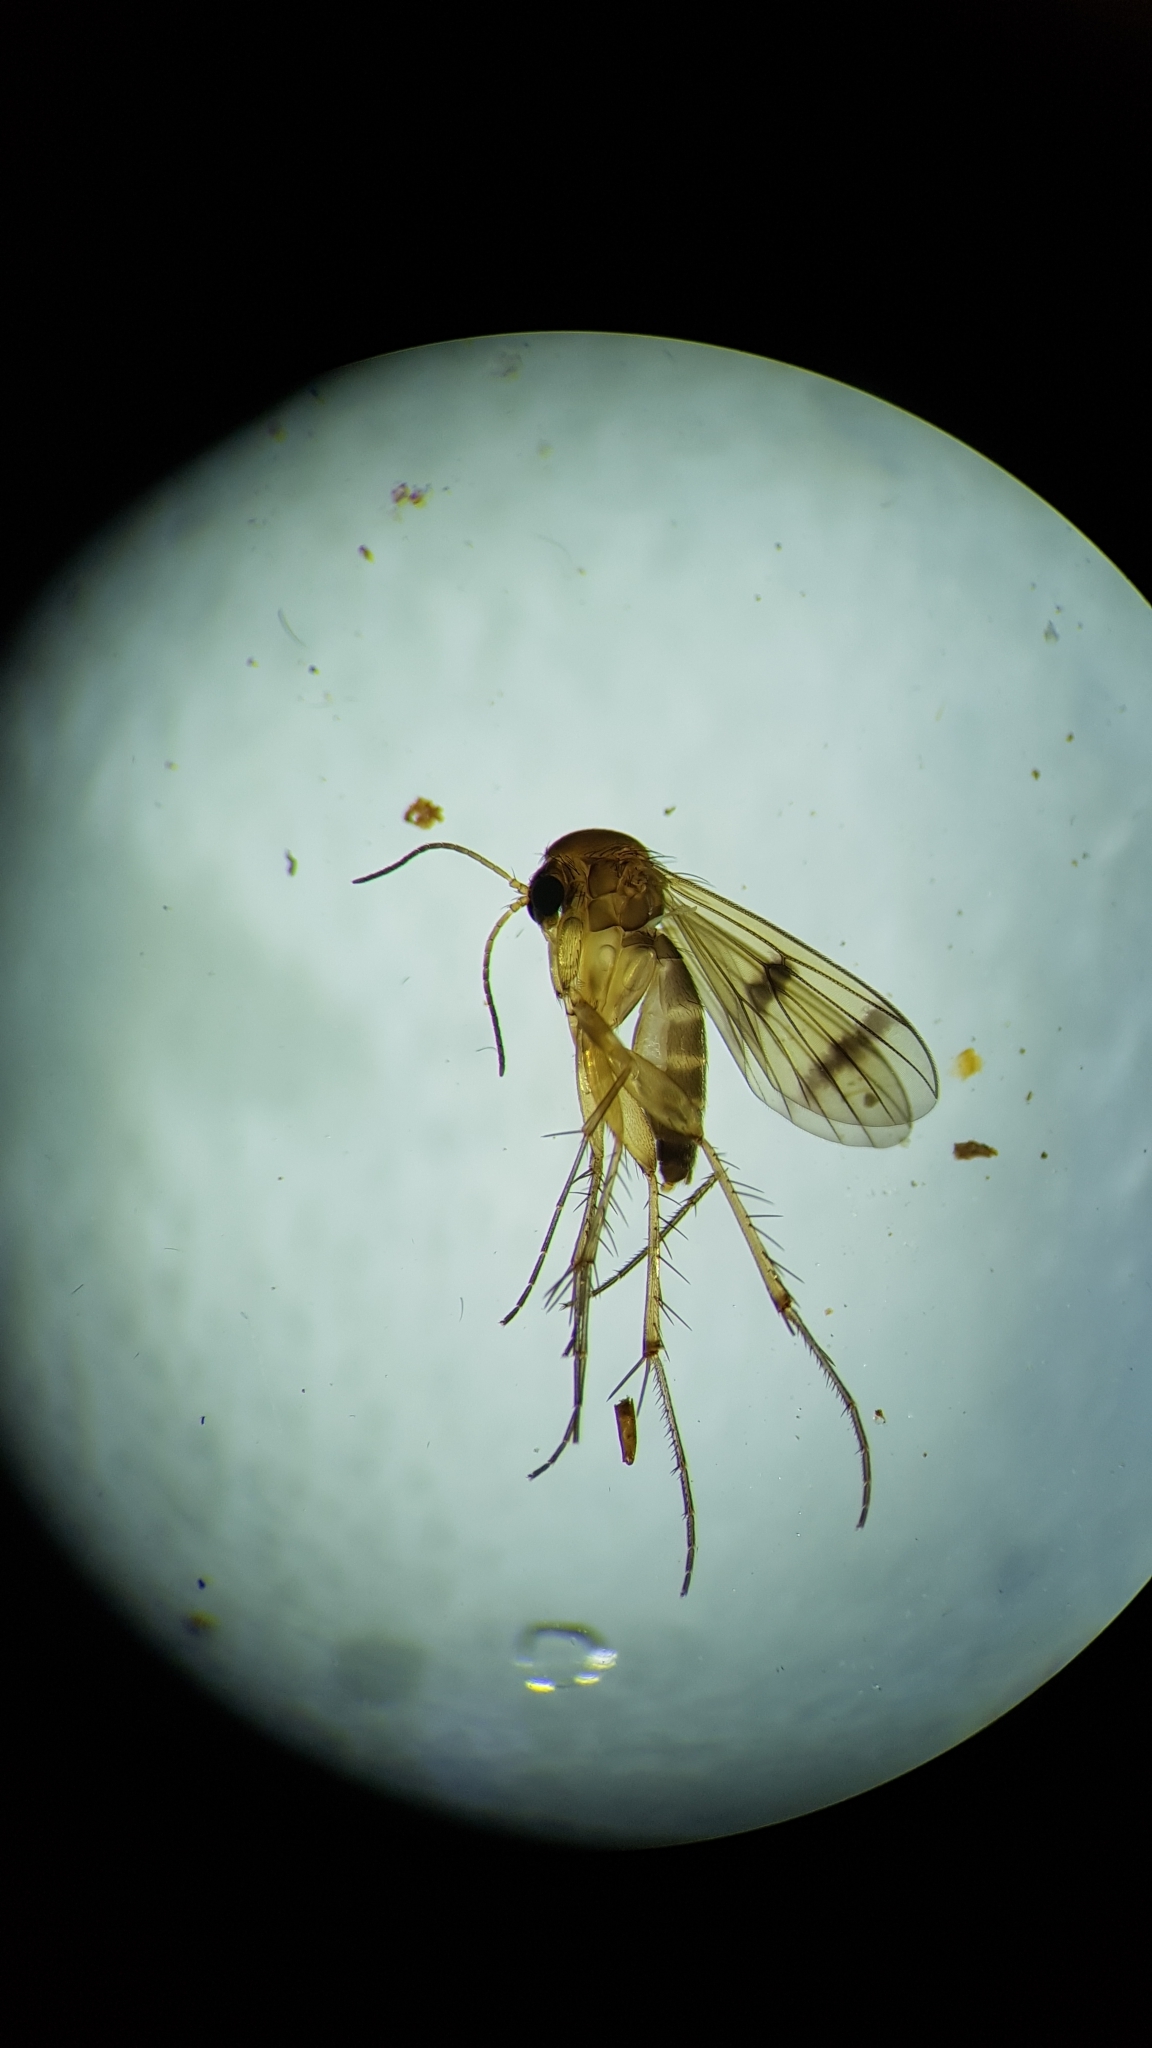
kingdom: Animalia
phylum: Arthropoda
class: Insecta
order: Diptera
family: Mycetophilidae
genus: Mycetophila
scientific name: Mycetophila vulgaris
